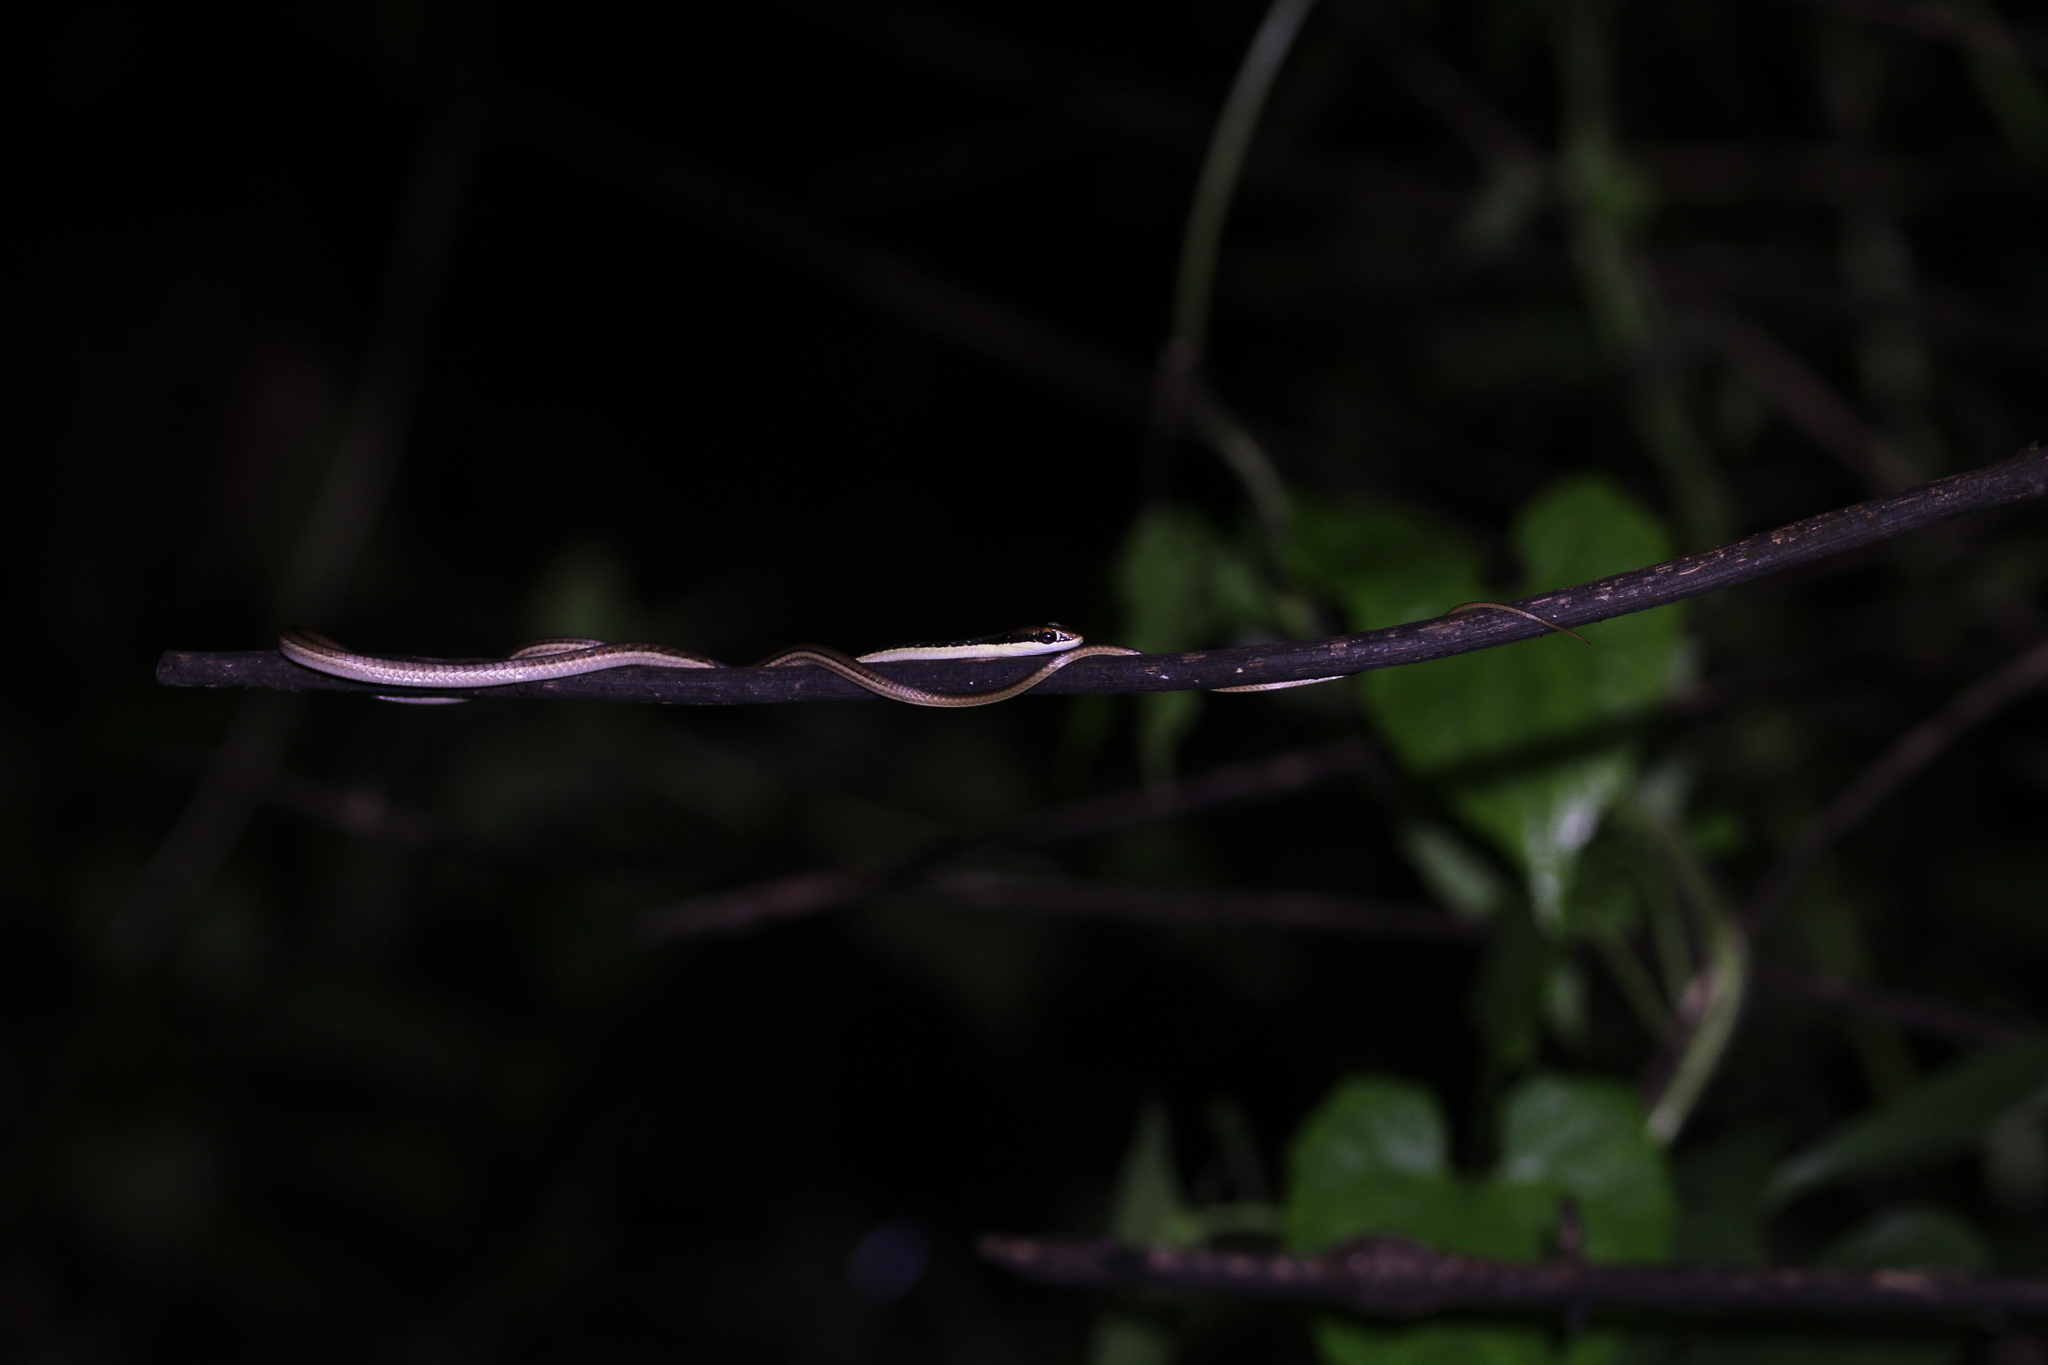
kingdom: Animalia
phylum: Chordata
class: Squamata
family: Colubridae
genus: Dendrelaphis
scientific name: Dendrelaphis pictus
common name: Indonesian bronze-back
